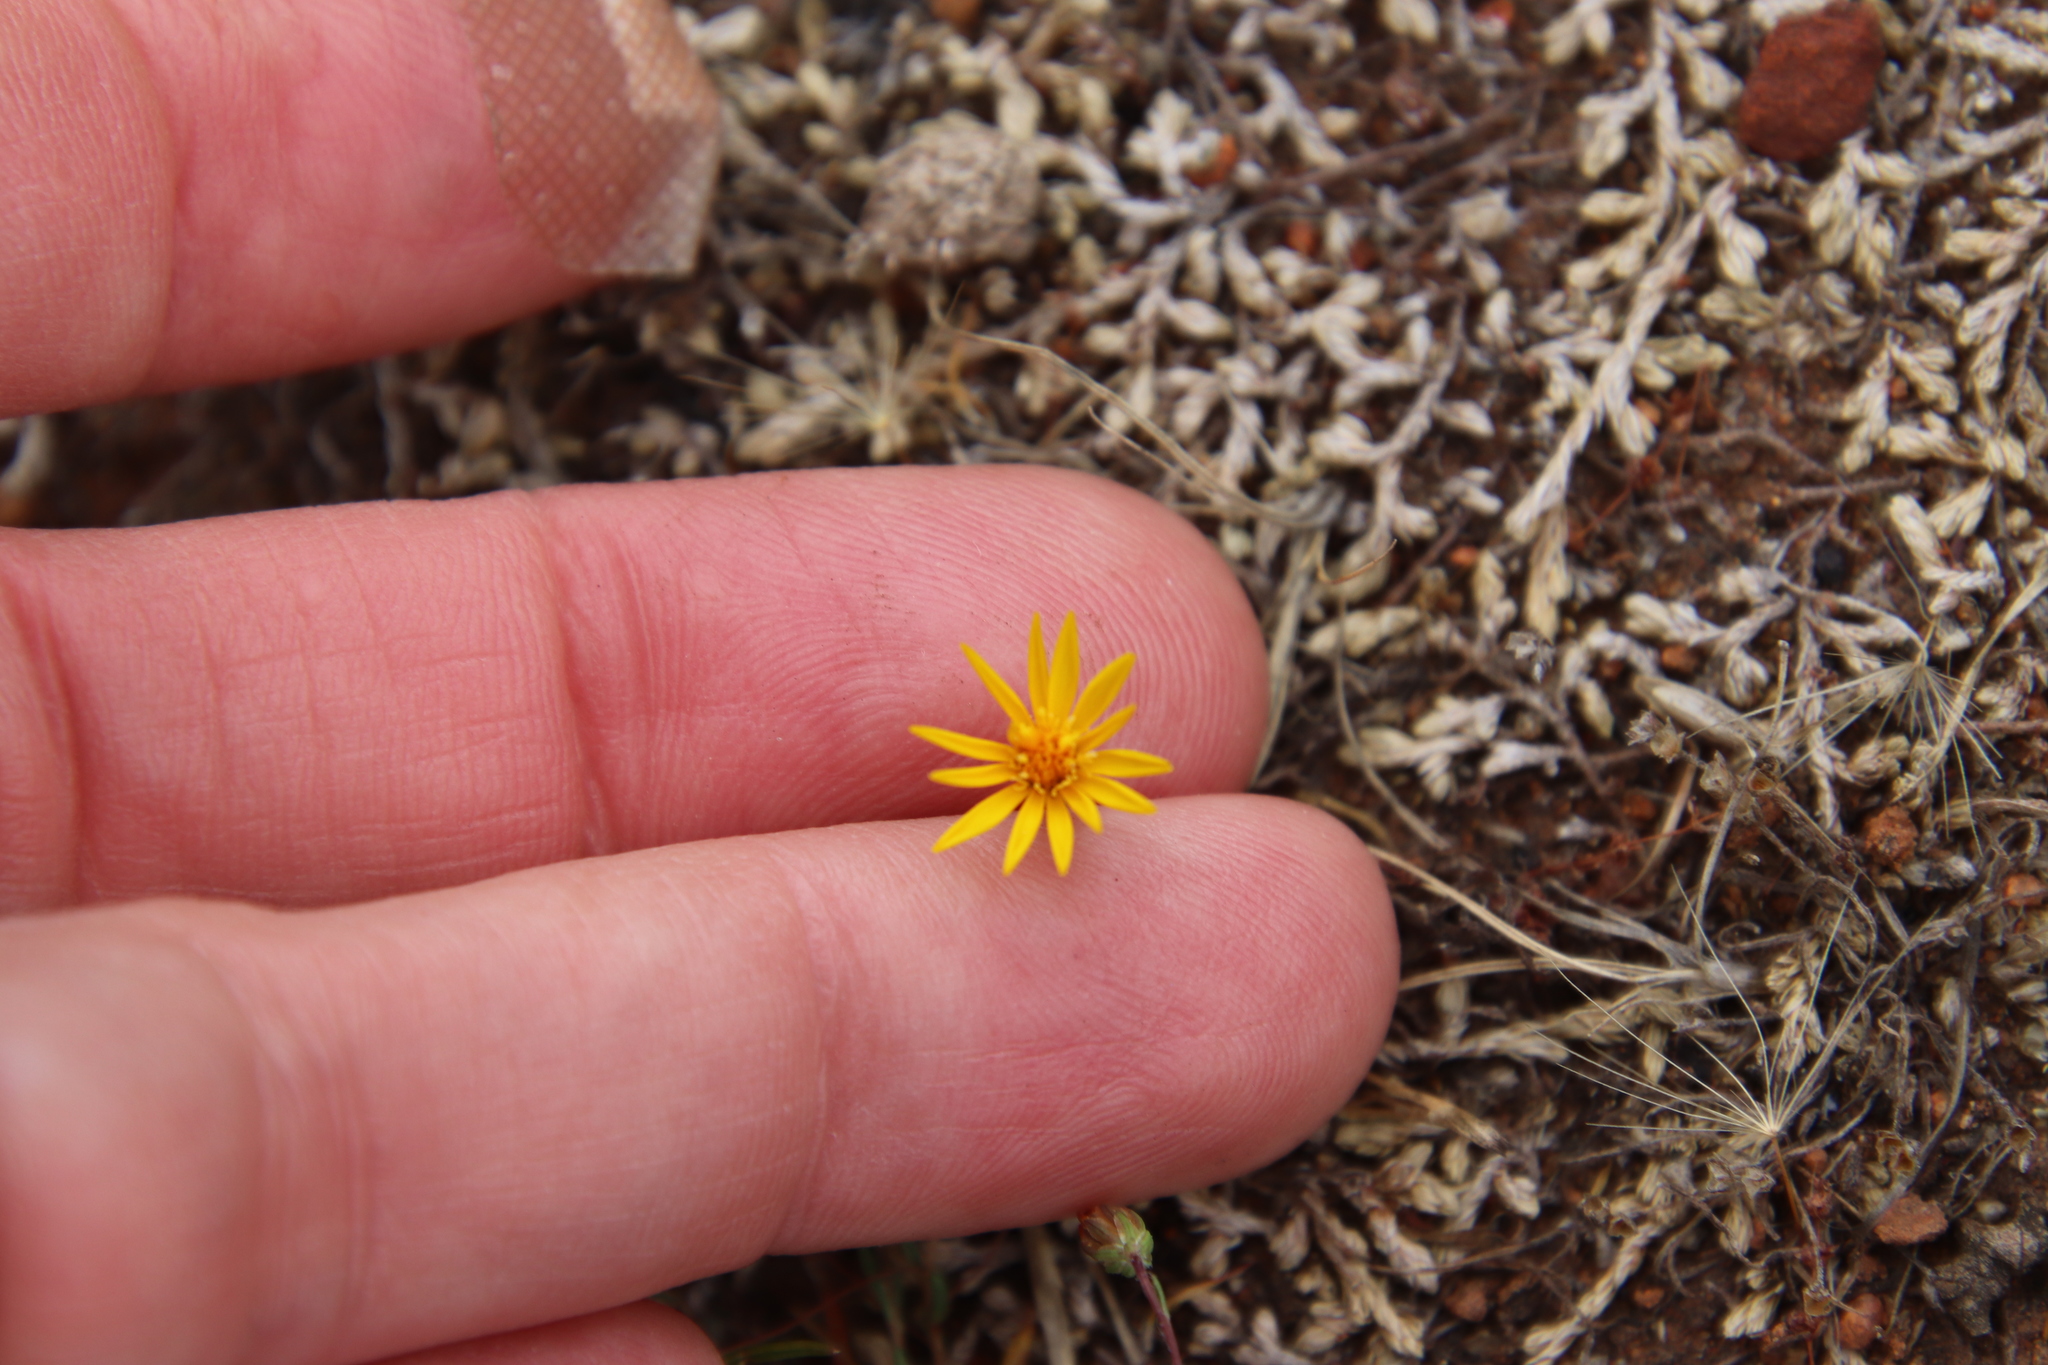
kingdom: Plantae
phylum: Tracheophyta
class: Magnoliopsida
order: Asterales
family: Asteraceae
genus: Pentachaeta
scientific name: Pentachaeta aurea
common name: Golden-ray pentachaeta
